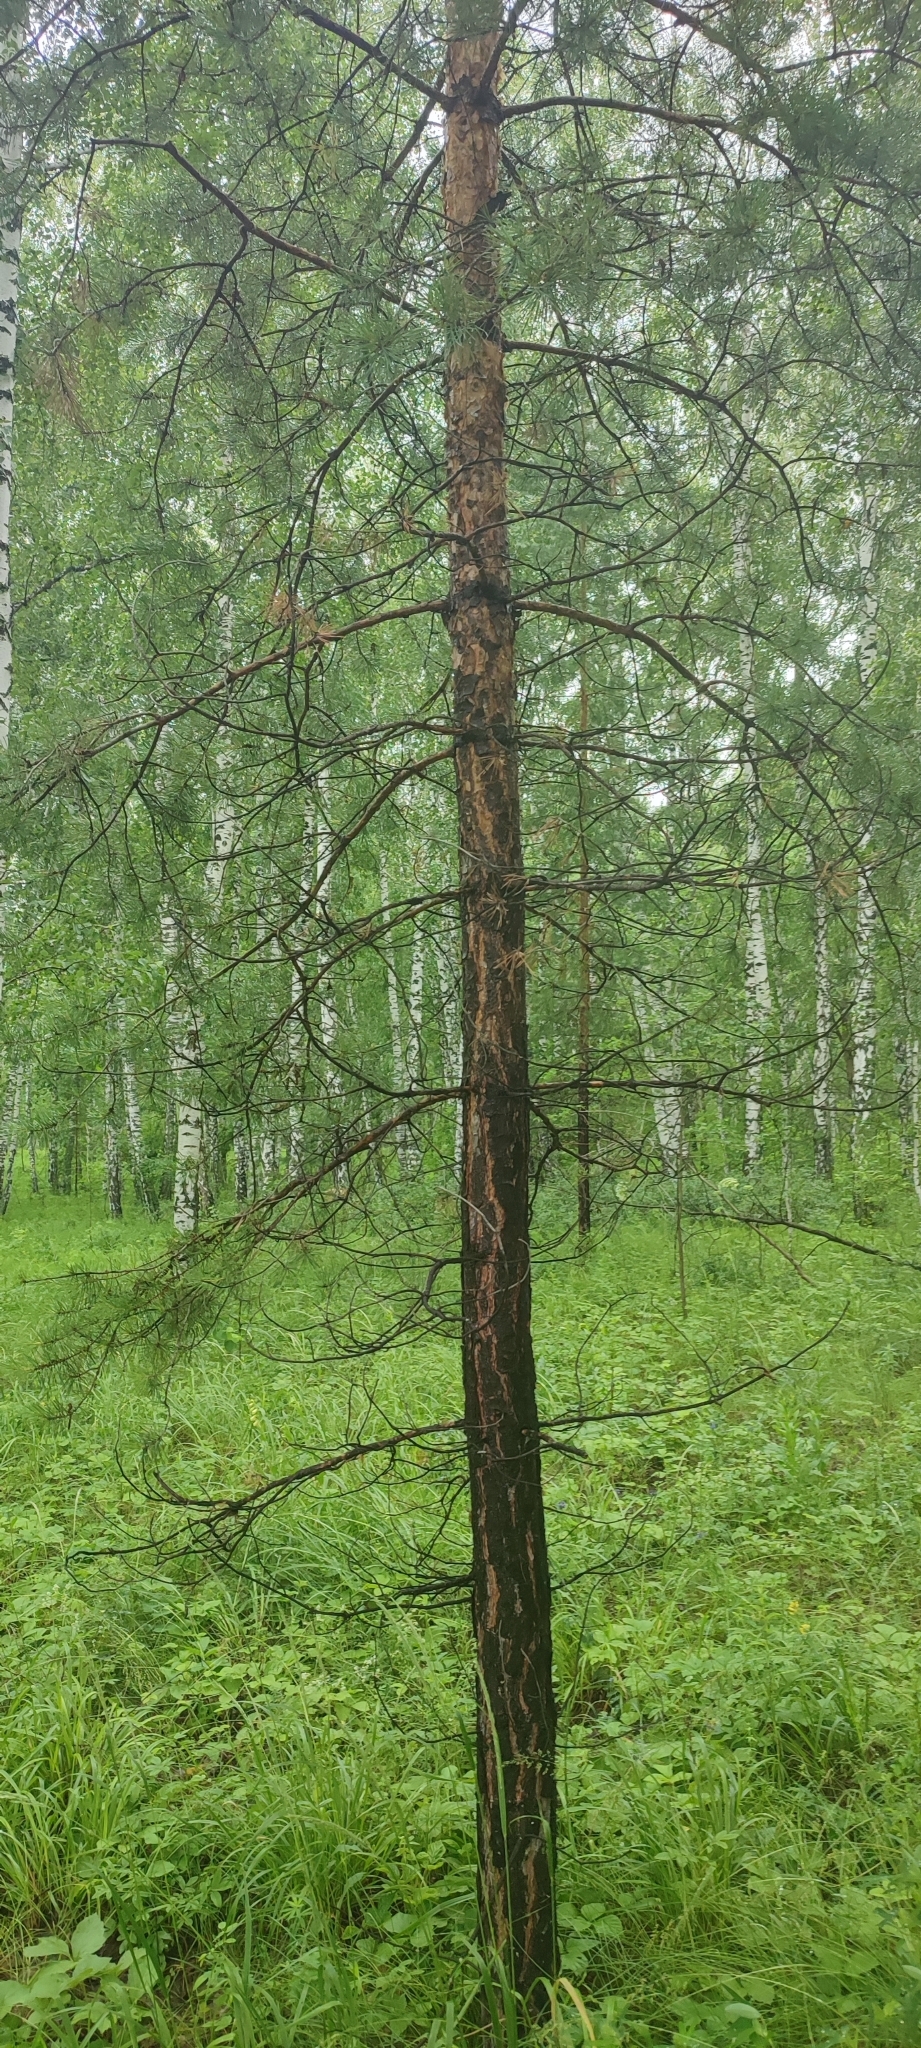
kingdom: Plantae
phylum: Tracheophyta
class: Pinopsida
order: Pinales
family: Pinaceae
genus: Pinus
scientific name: Pinus sylvestris
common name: Scots pine
